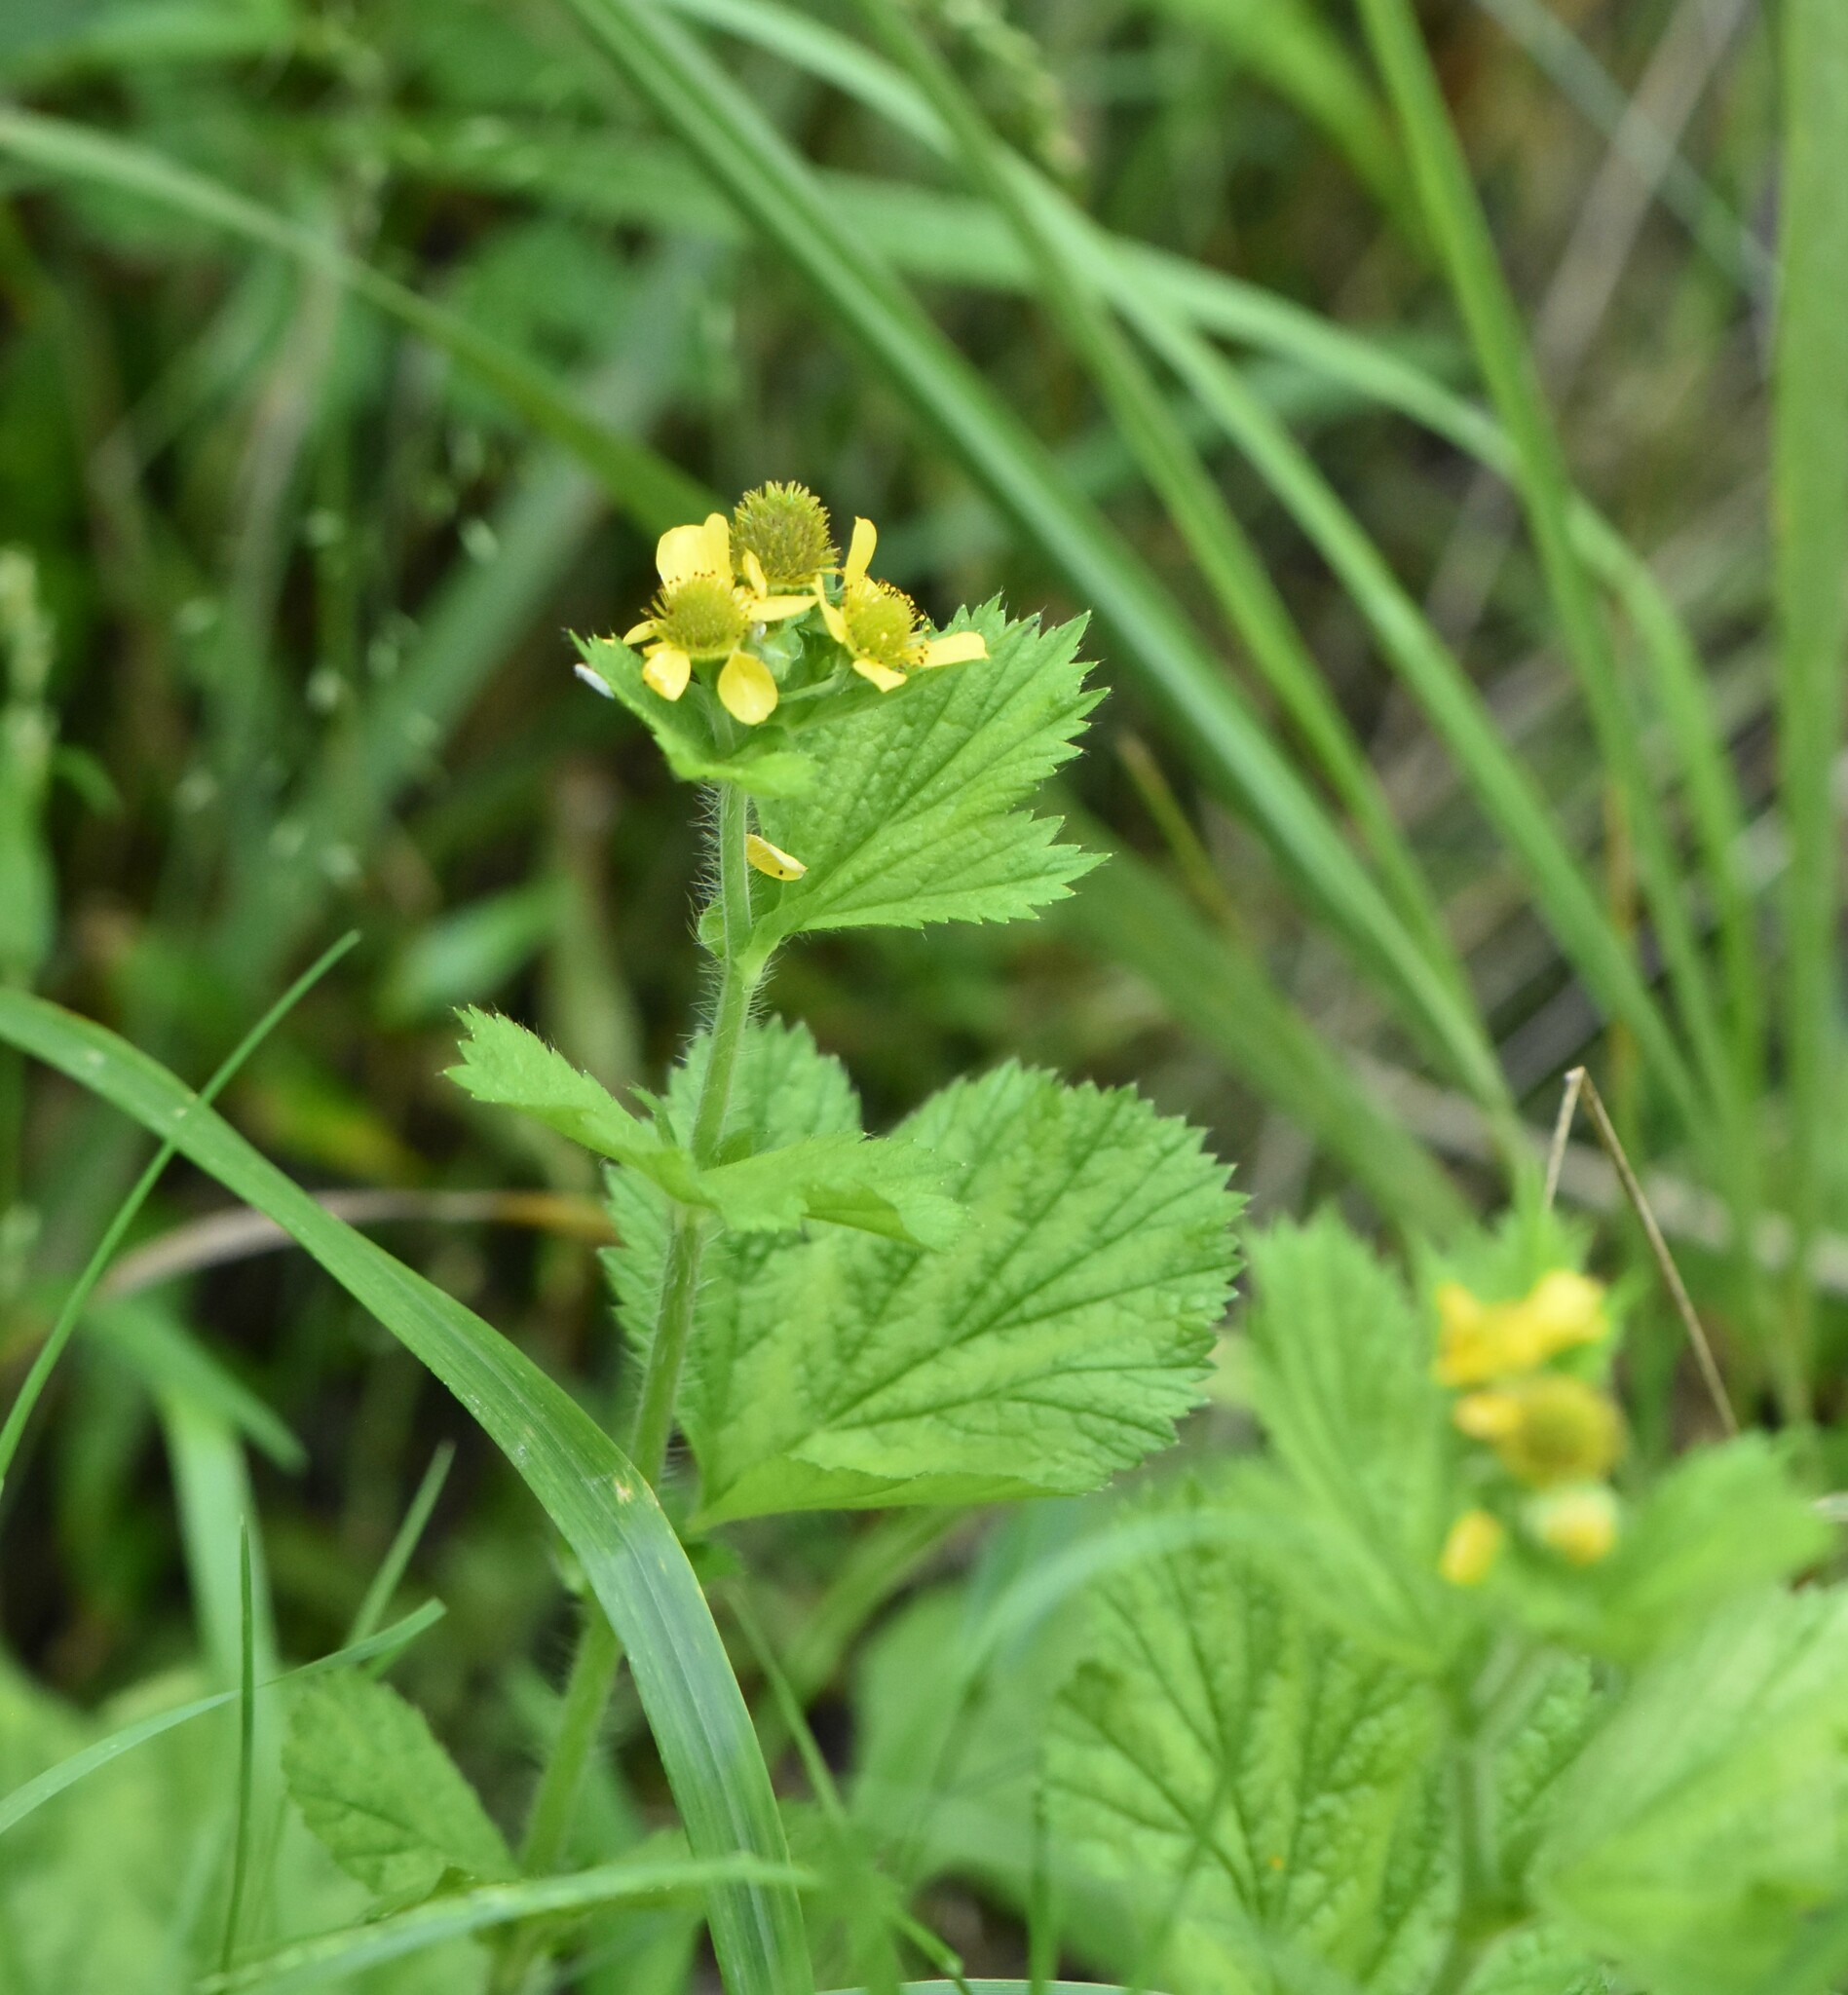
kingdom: Plantae
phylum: Tracheophyta
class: Magnoliopsida
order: Rosales
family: Rosaceae
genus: Geum
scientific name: Geum macrophyllum
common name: Large-leaved avens
